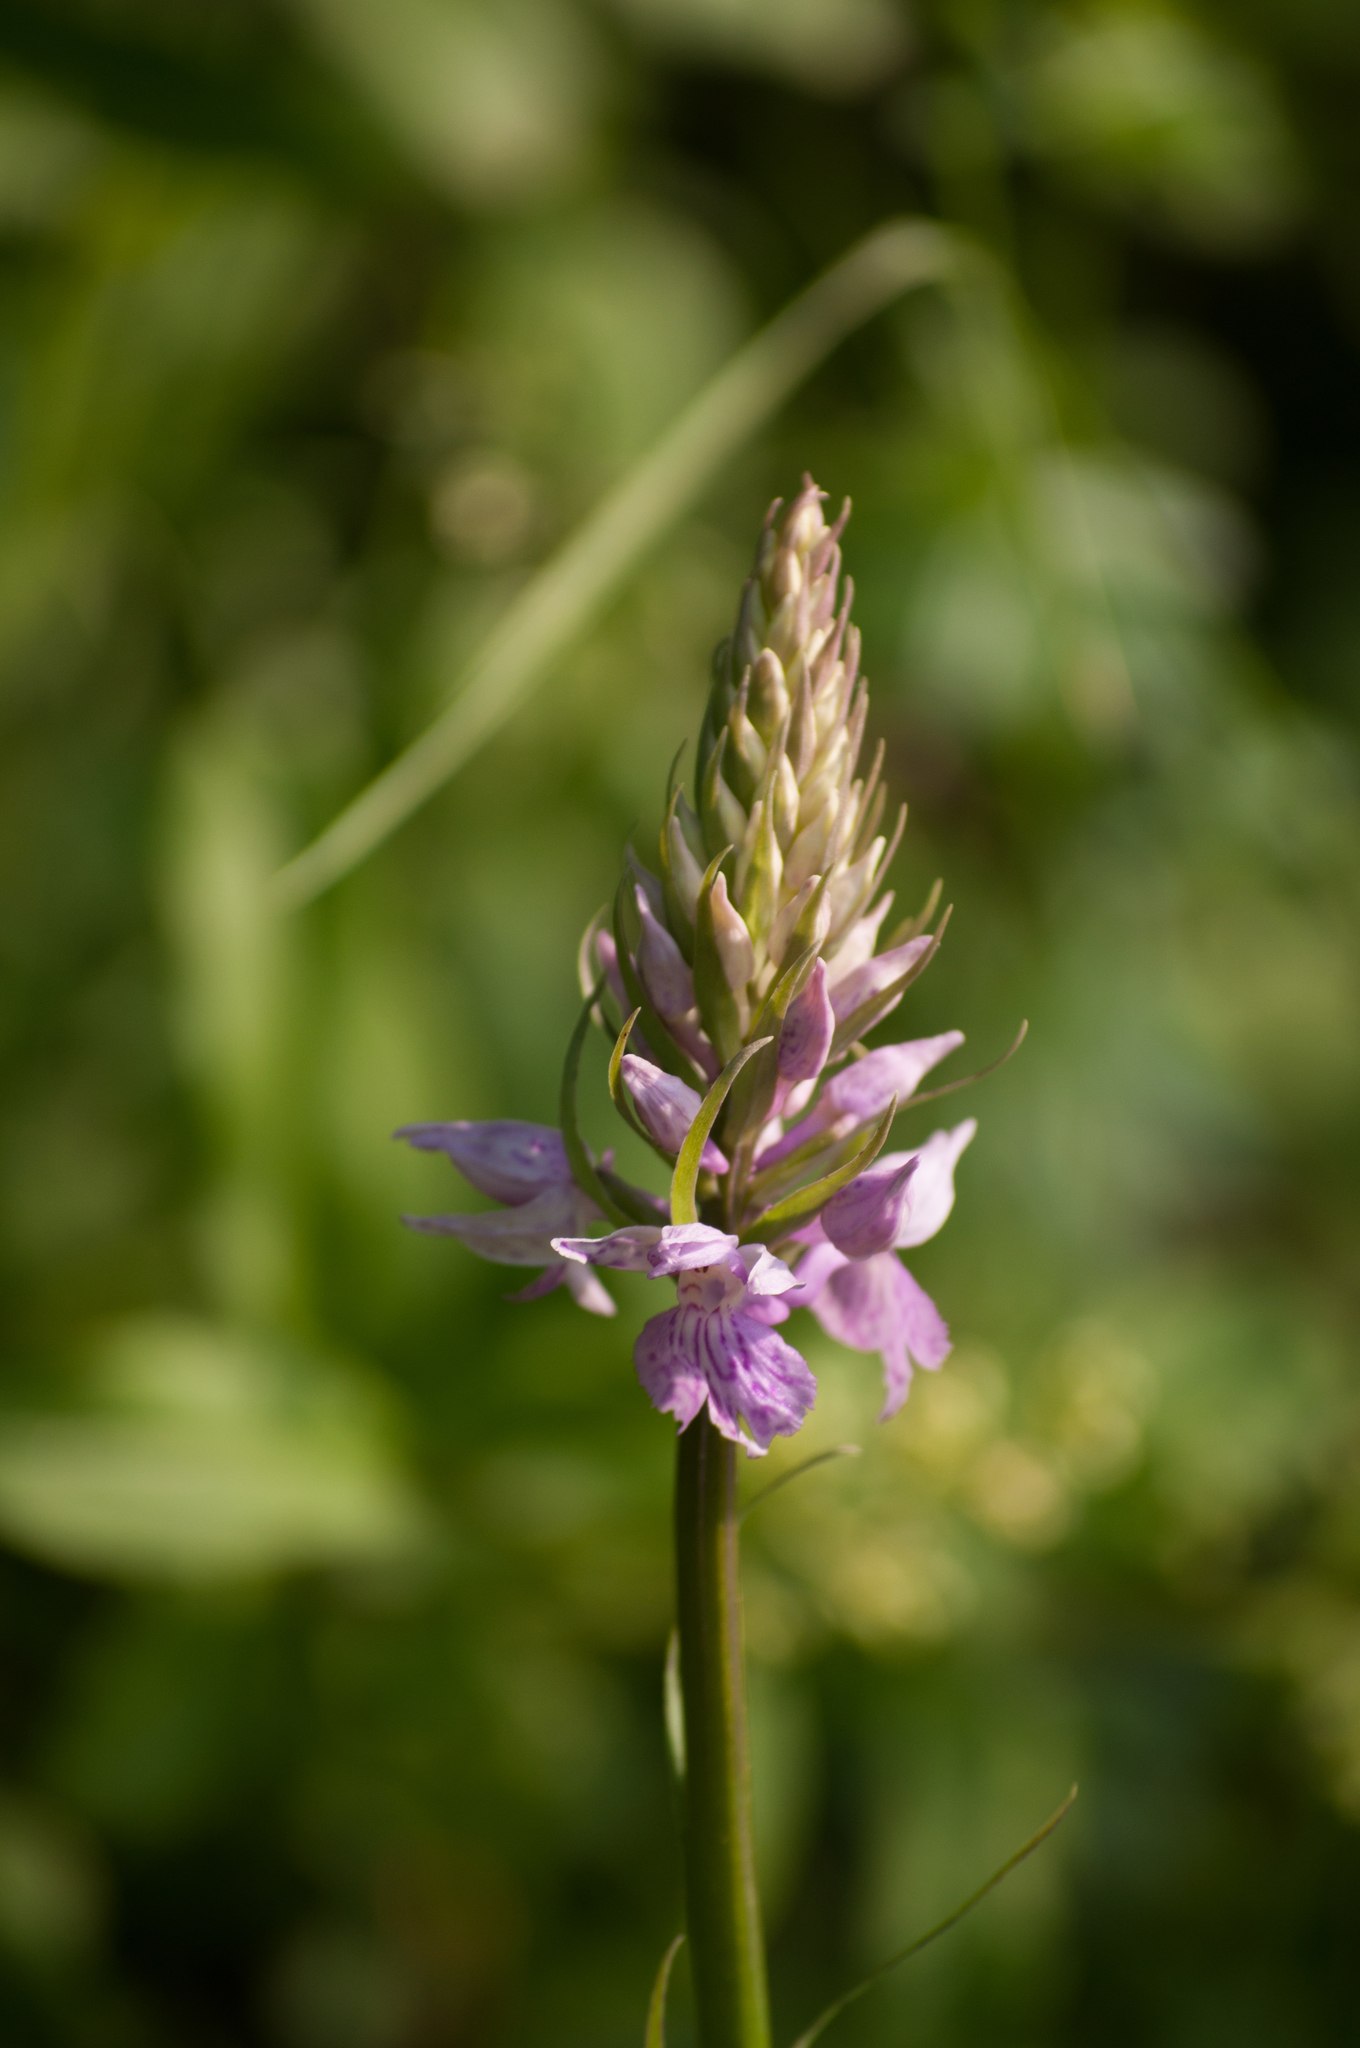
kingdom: Plantae
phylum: Tracheophyta
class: Liliopsida
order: Asparagales
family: Orchidaceae
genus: Dactylorhiza
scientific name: Dactylorhiza maculata
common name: Heath spotted-orchid
